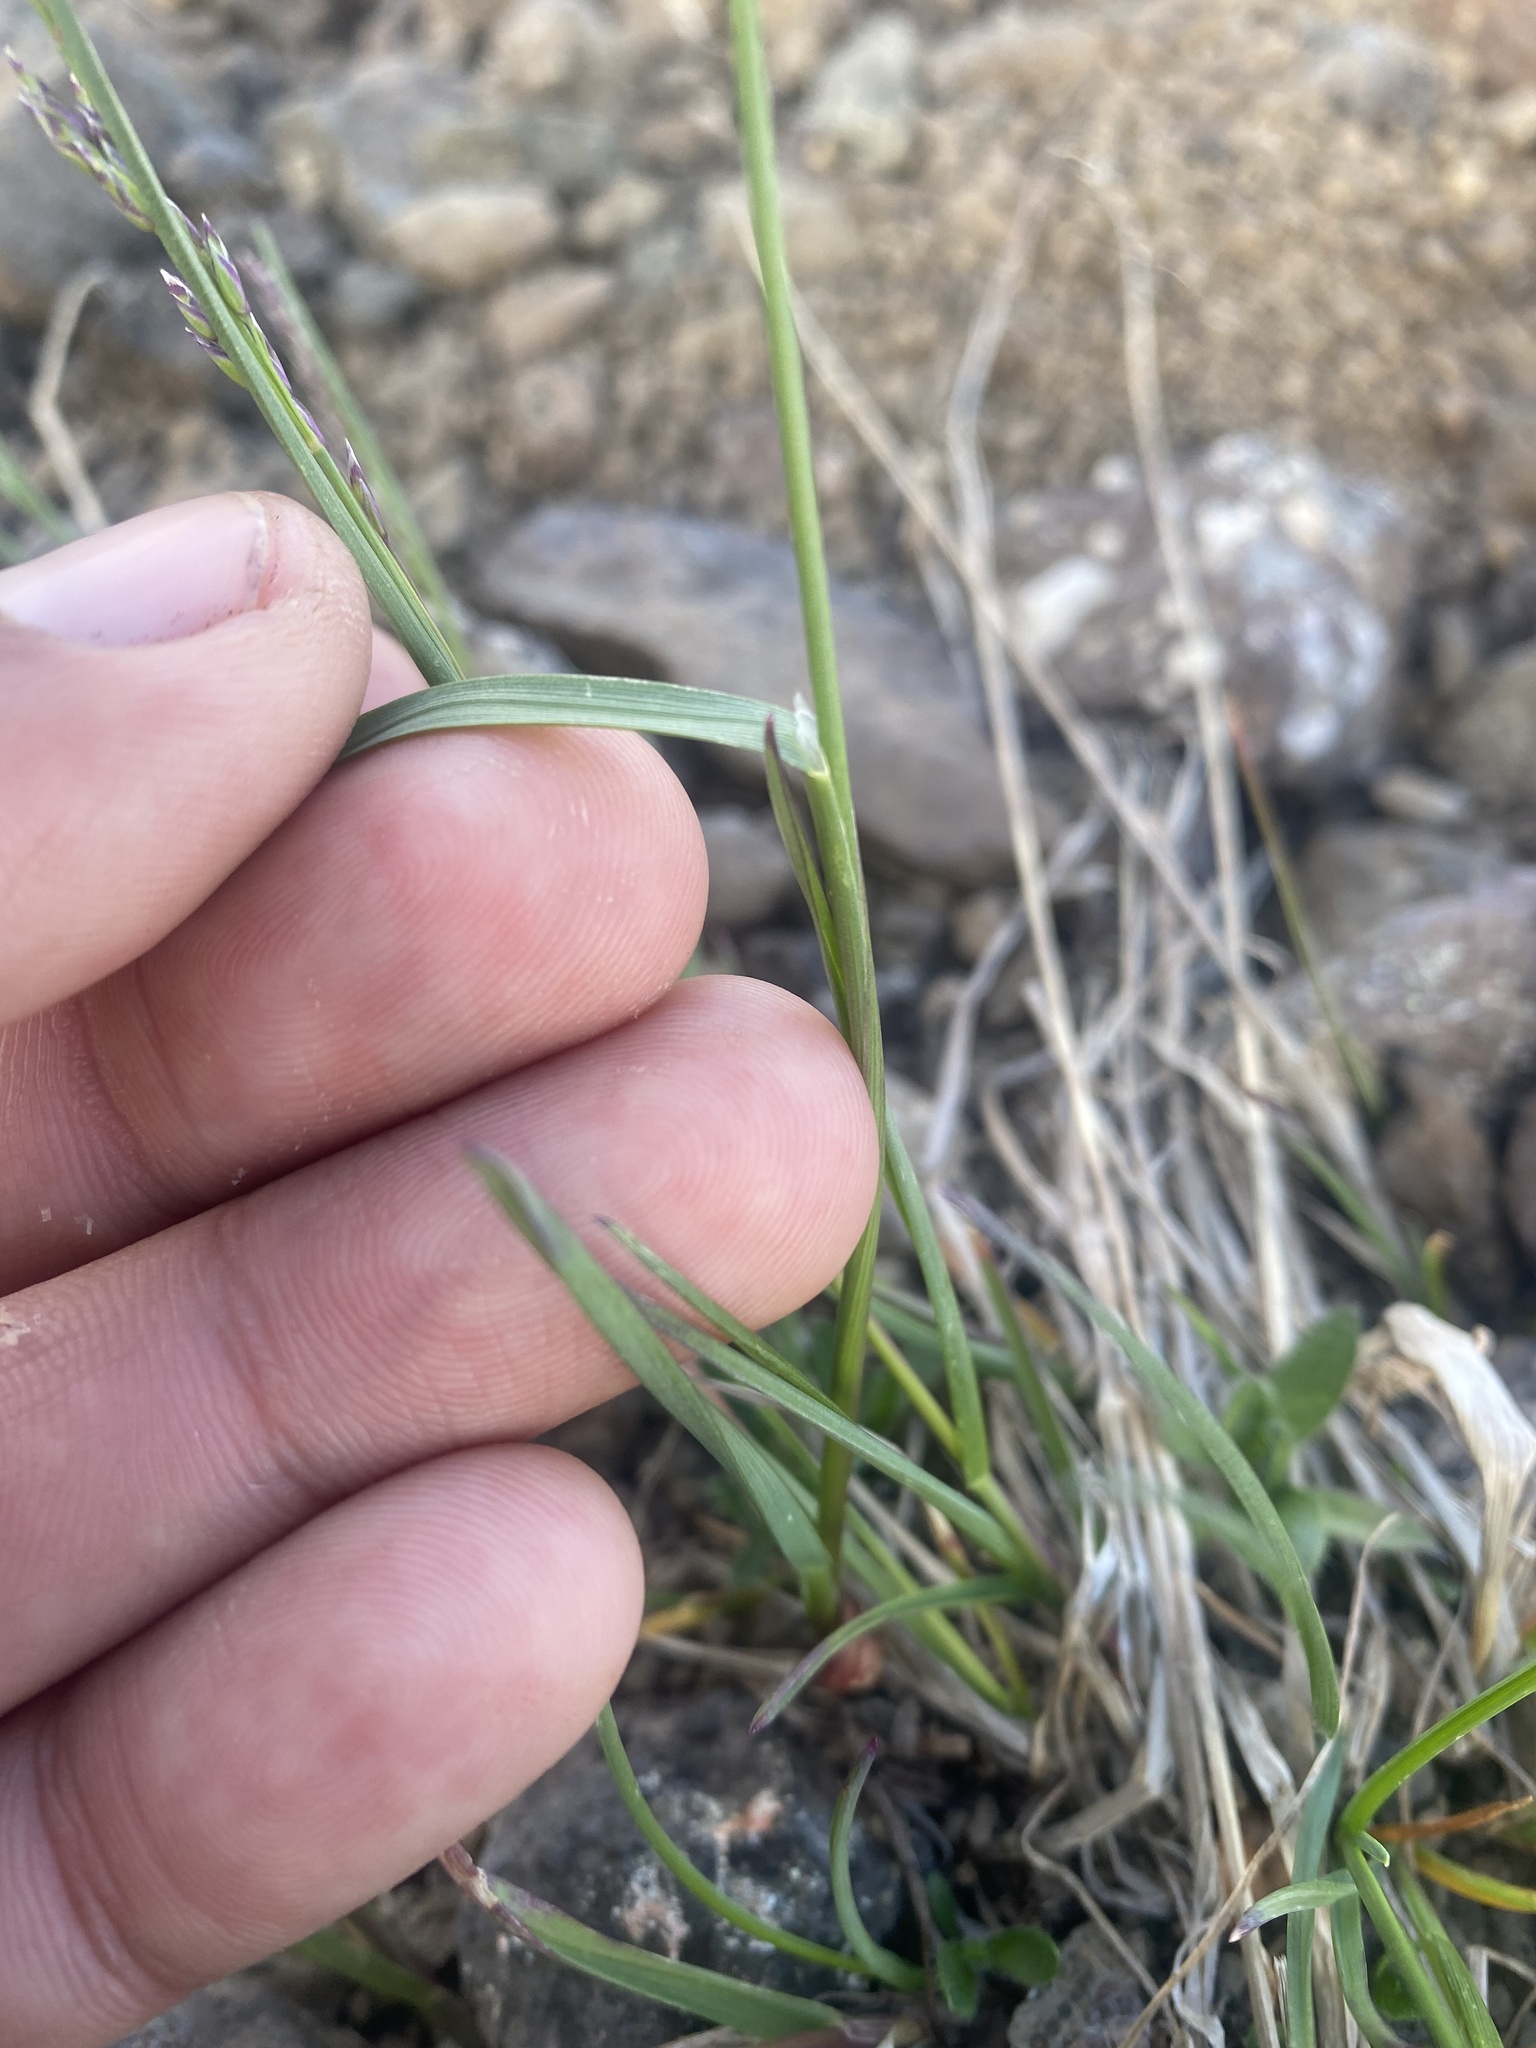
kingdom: Plantae
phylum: Tracheophyta
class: Liliopsida
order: Poales
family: Poaceae
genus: Deschampsia
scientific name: Deschampsia cespitosa
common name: Tufted hair-grass
